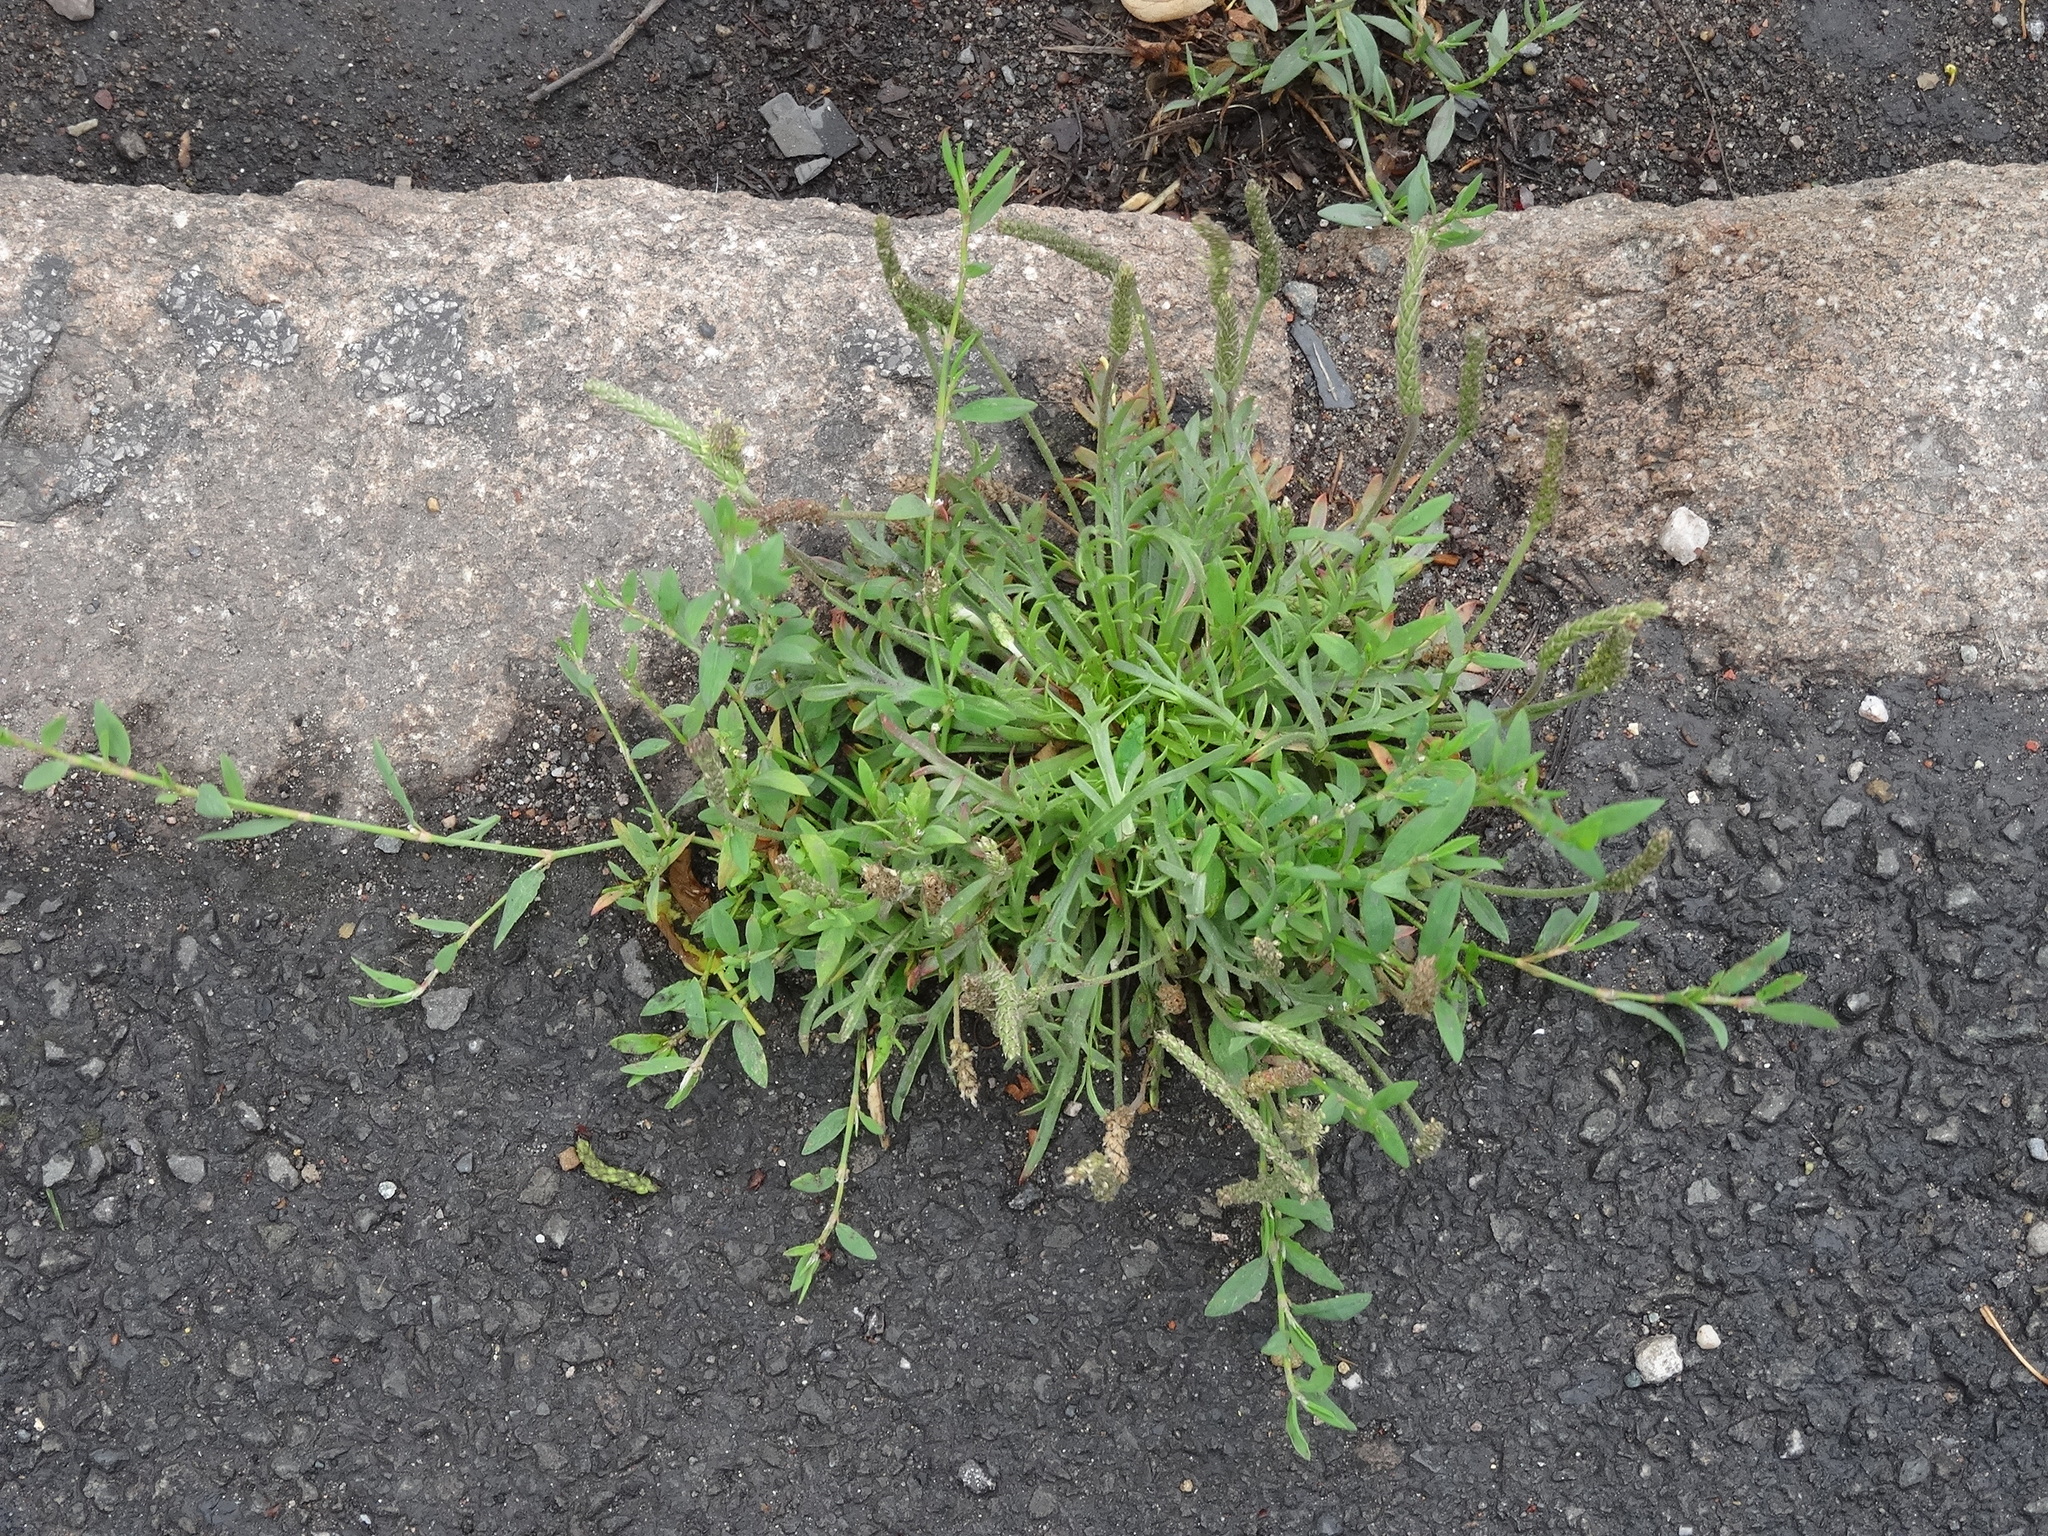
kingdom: Plantae
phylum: Tracheophyta
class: Magnoliopsida
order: Lamiales
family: Plantaginaceae
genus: Plantago
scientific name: Plantago coronopus
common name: Buck's-horn plantain
